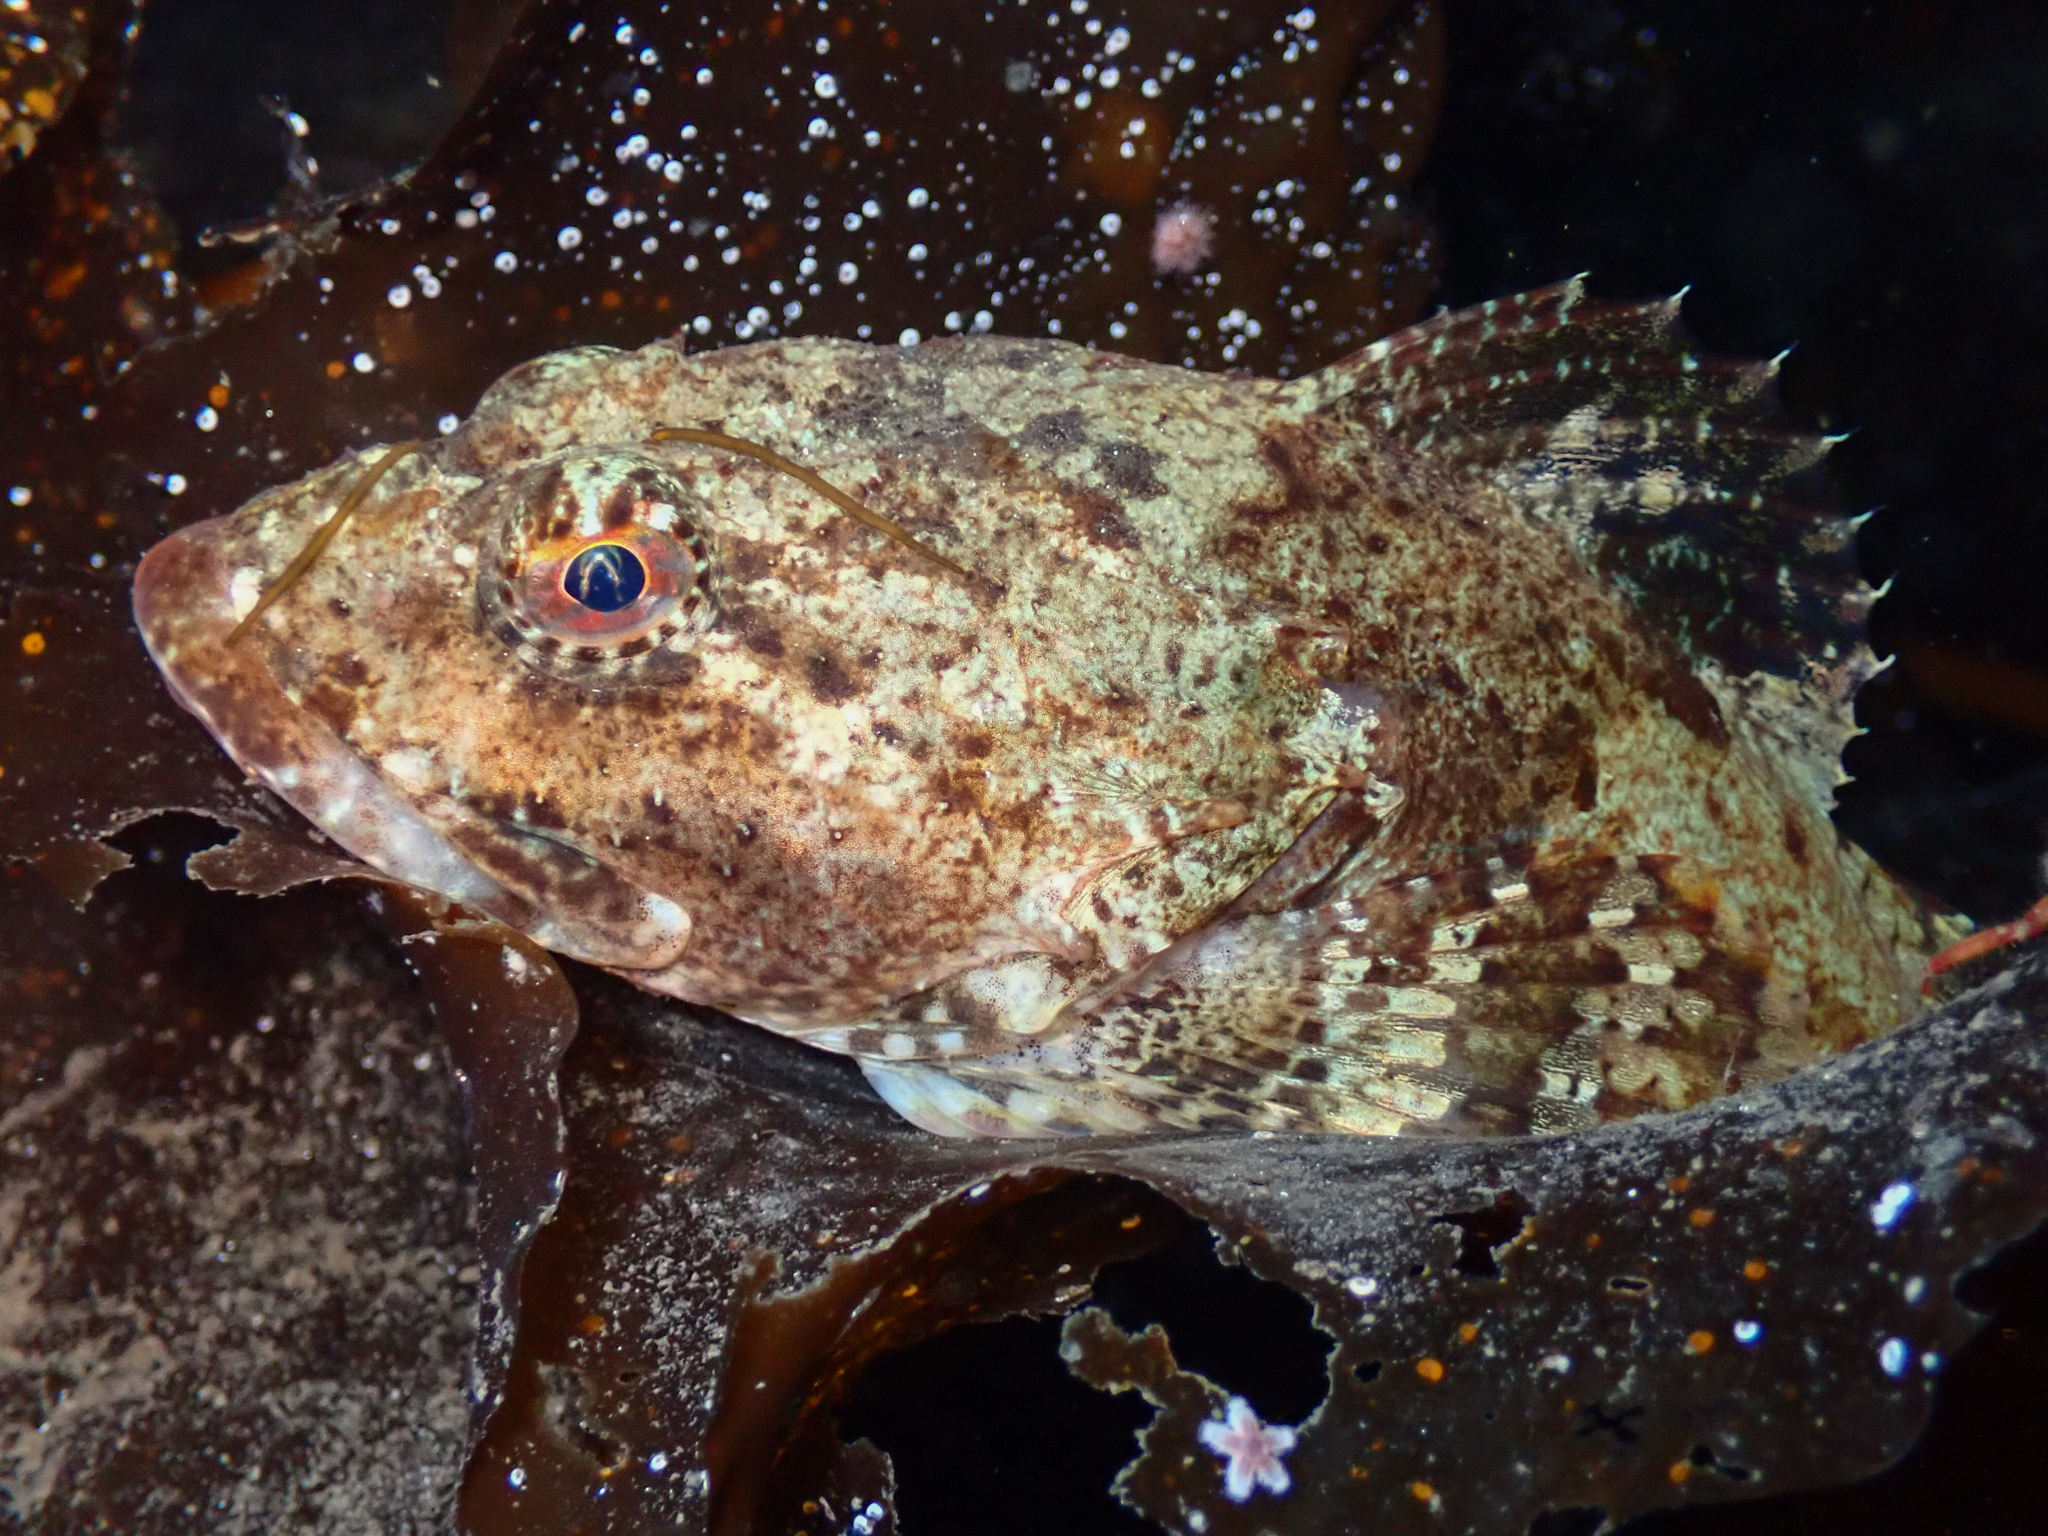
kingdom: Animalia
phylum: Chordata
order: Scorpaeniformes
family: Cottidae
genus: Myoxocephalus
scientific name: Myoxocephalus scorpius
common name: Shorthorn sculpin
